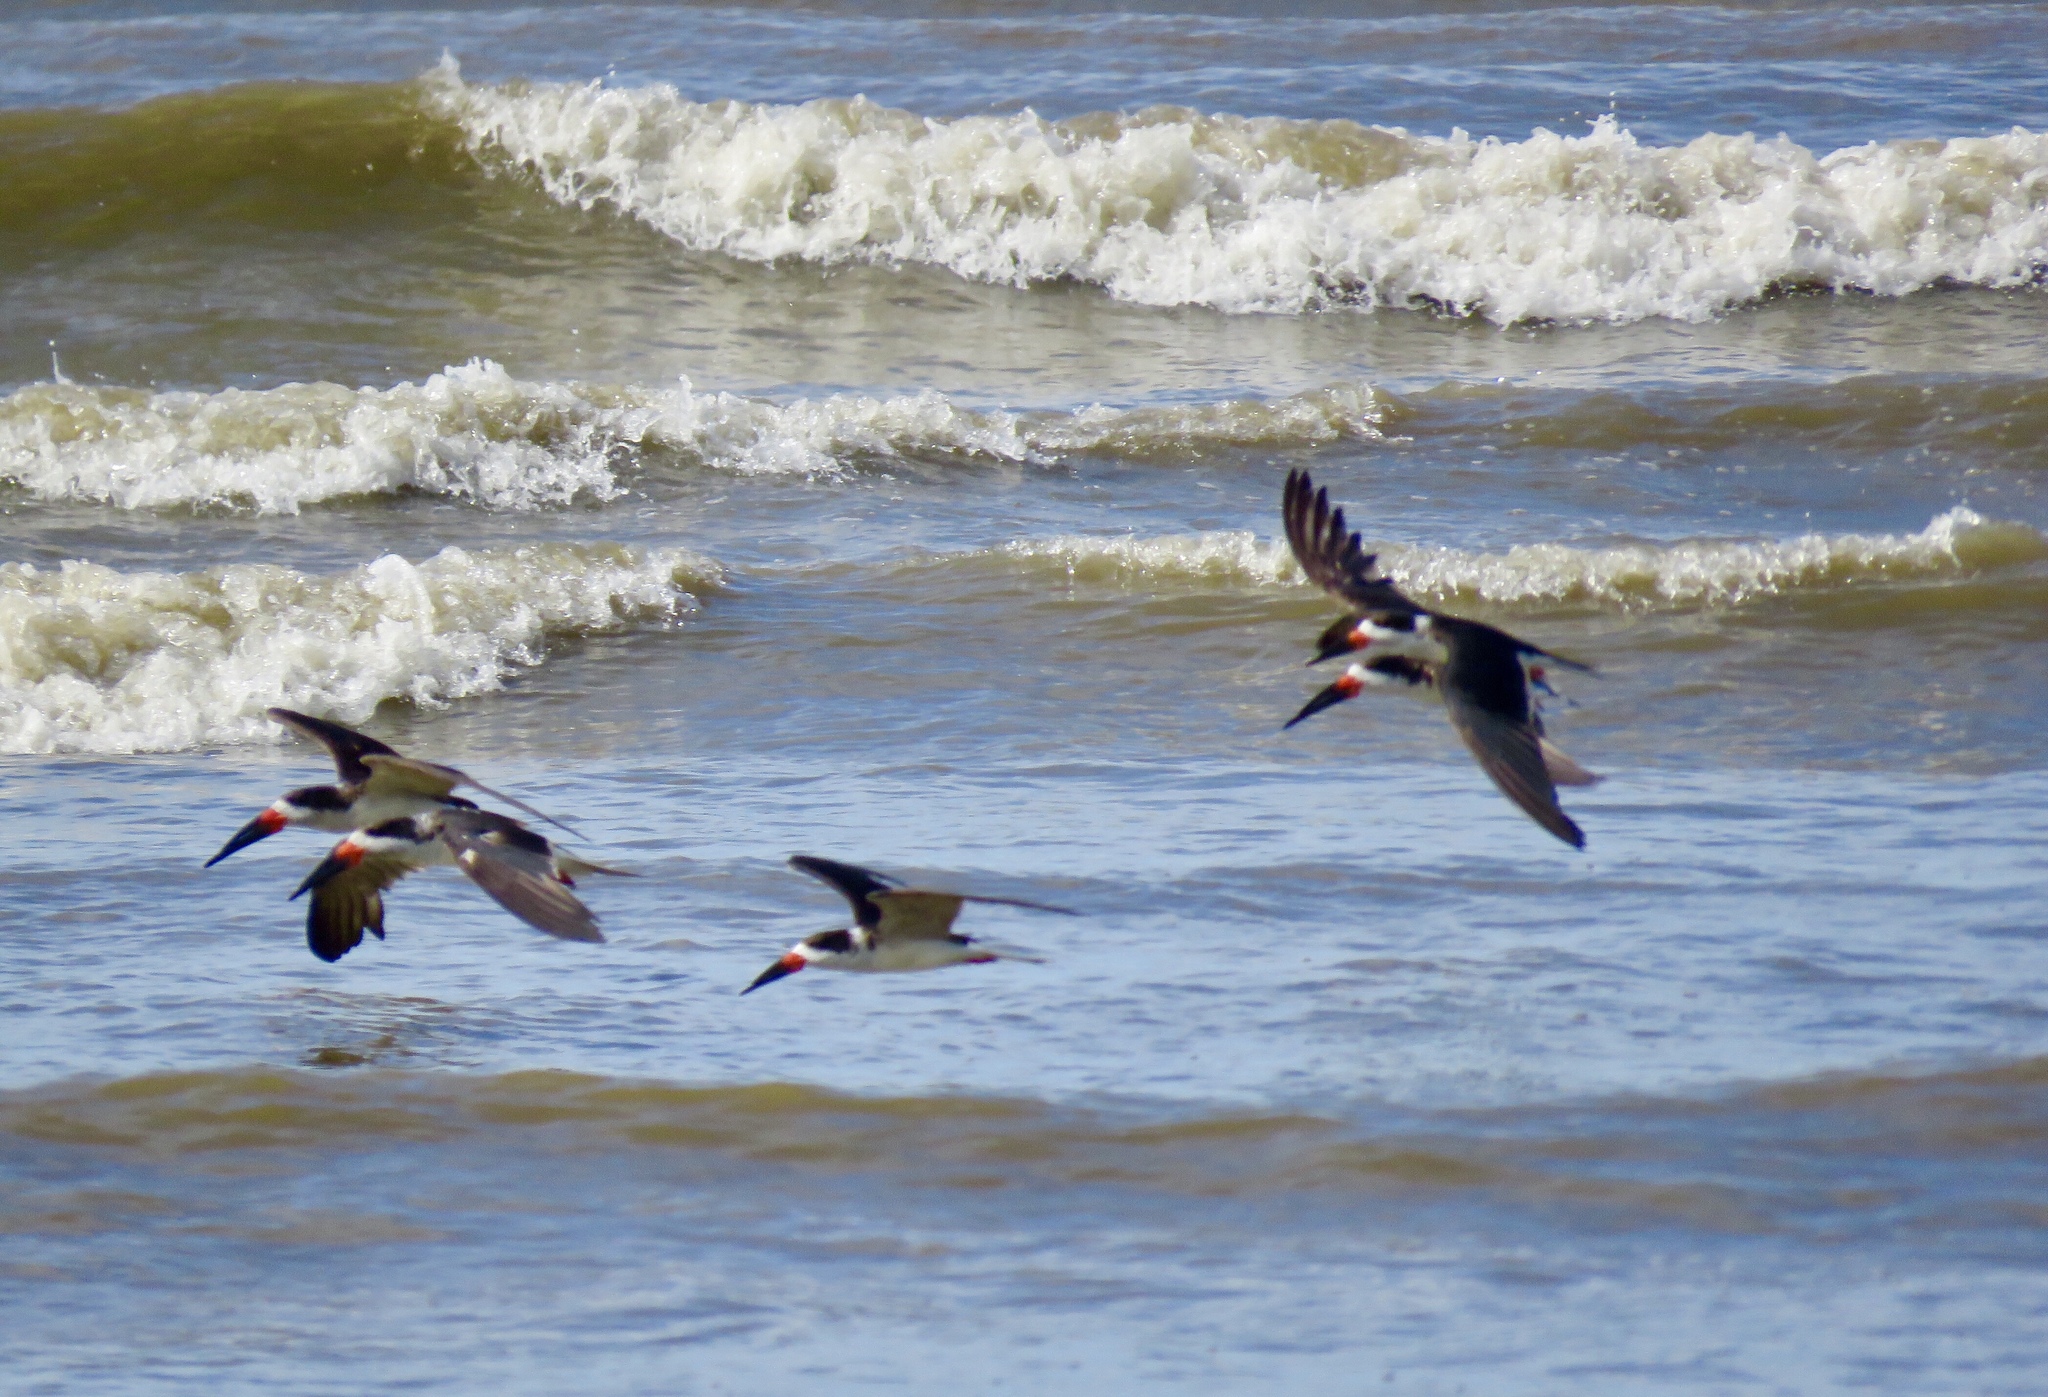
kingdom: Animalia
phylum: Chordata
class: Aves
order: Charadriiformes
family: Laridae
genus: Rynchops
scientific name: Rynchops niger
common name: Black skimmer
